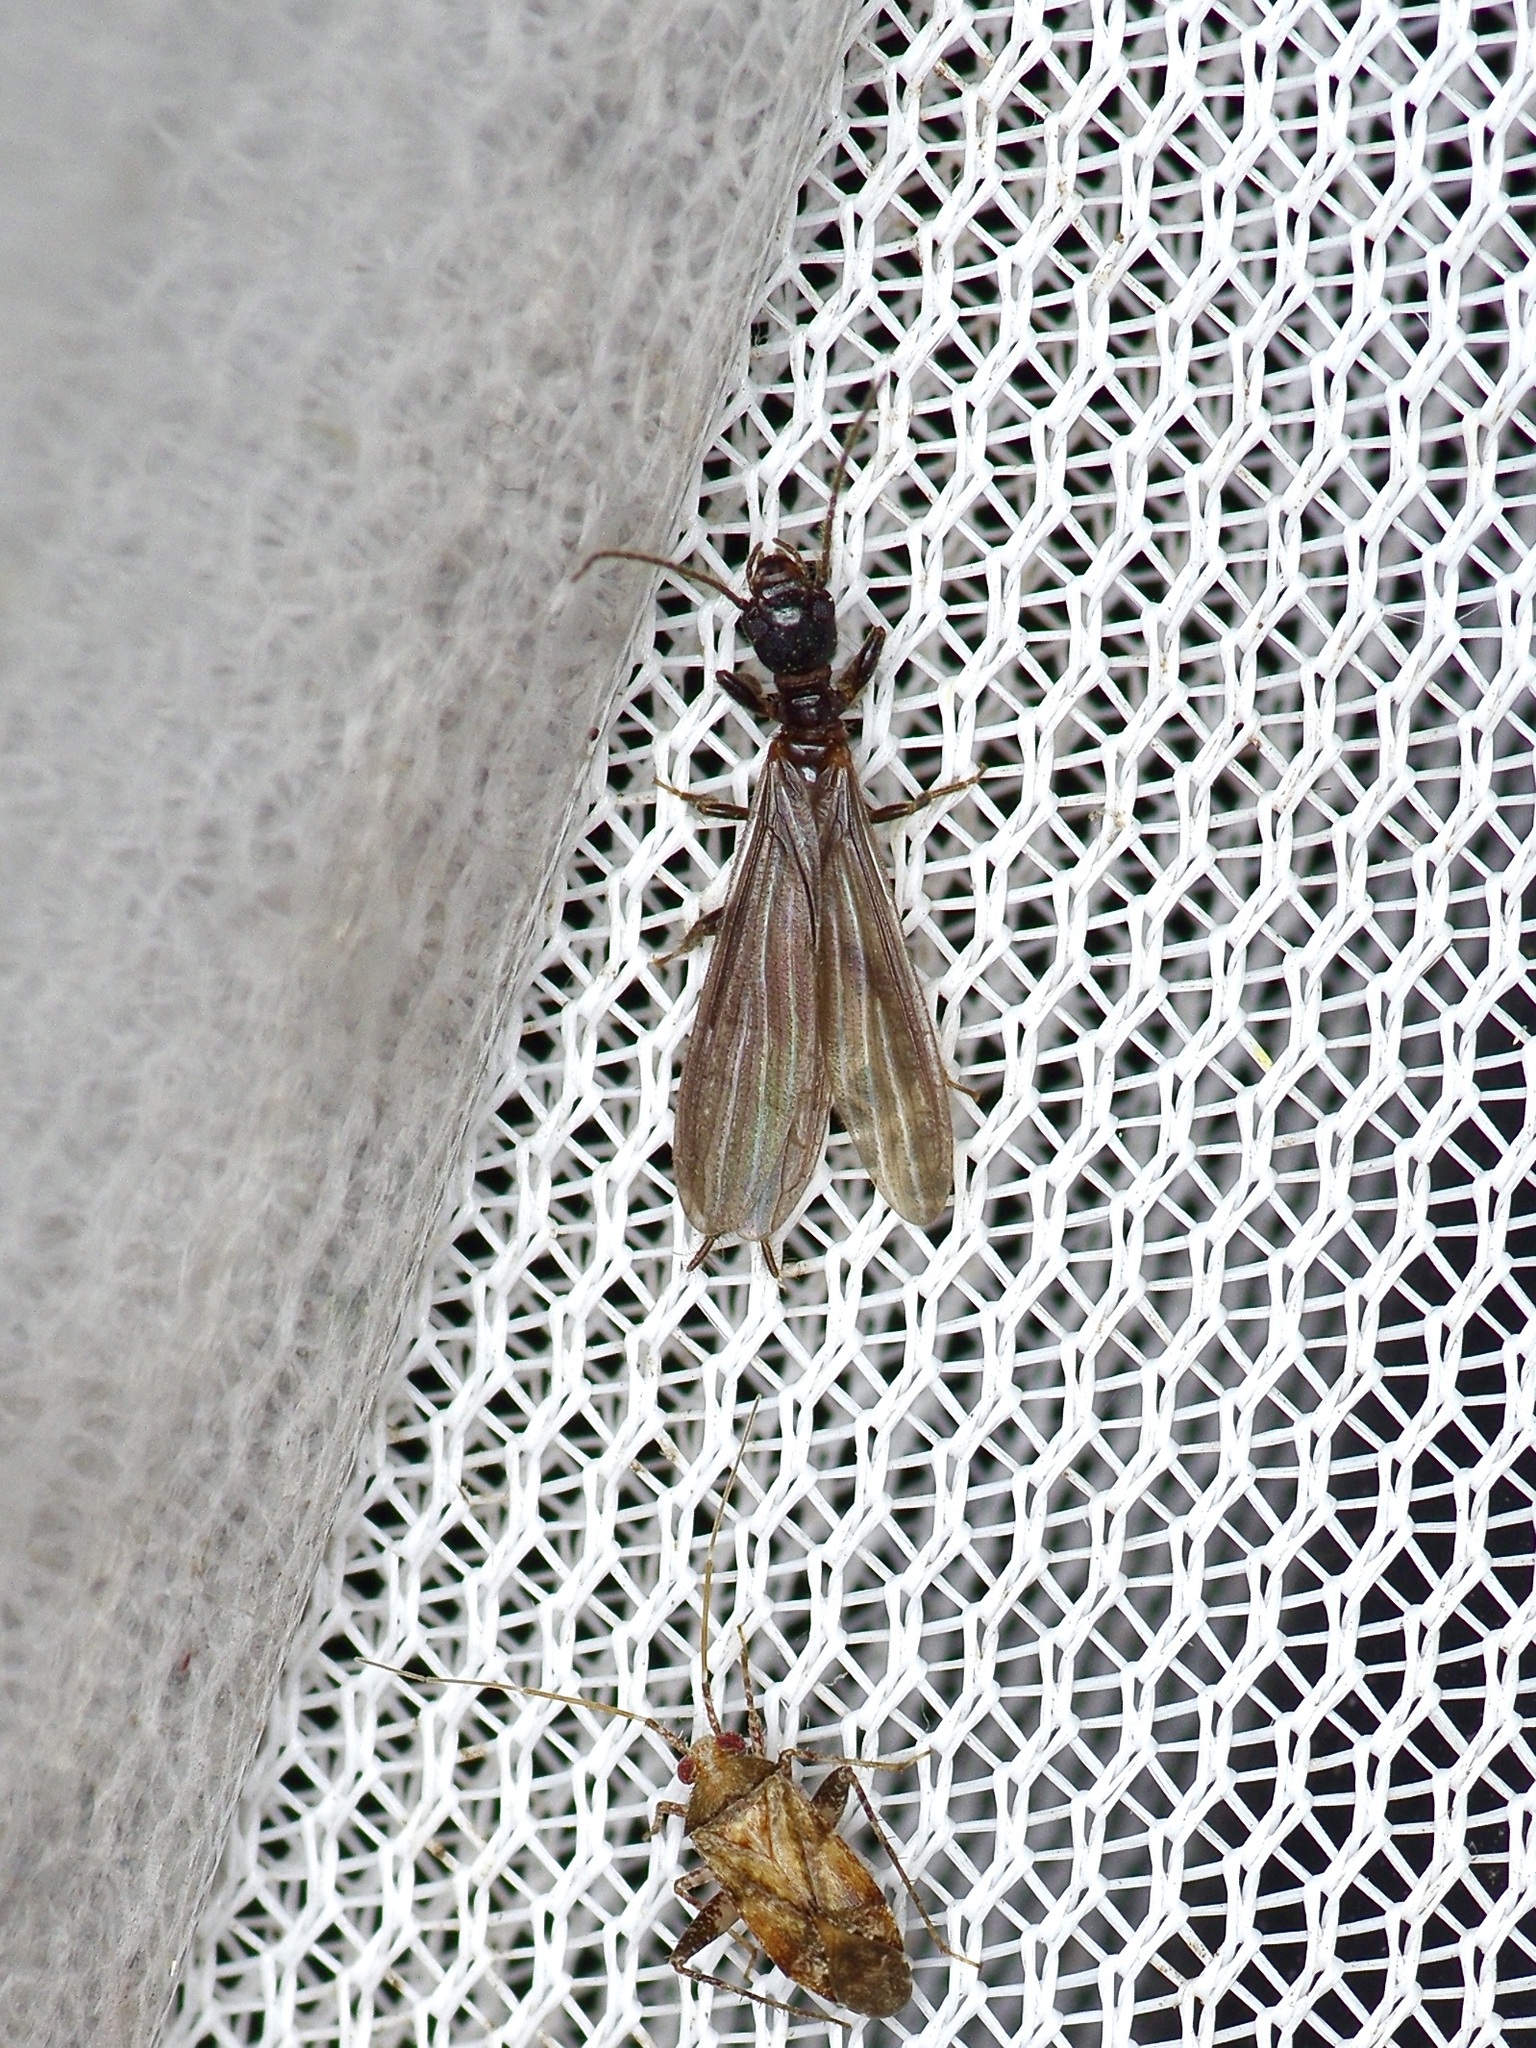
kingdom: Animalia
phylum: Arthropoda
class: Insecta
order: Embioptera
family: Oligotomidae
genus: Oligotoma
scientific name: Oligotoma nigra
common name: Black webspinner
